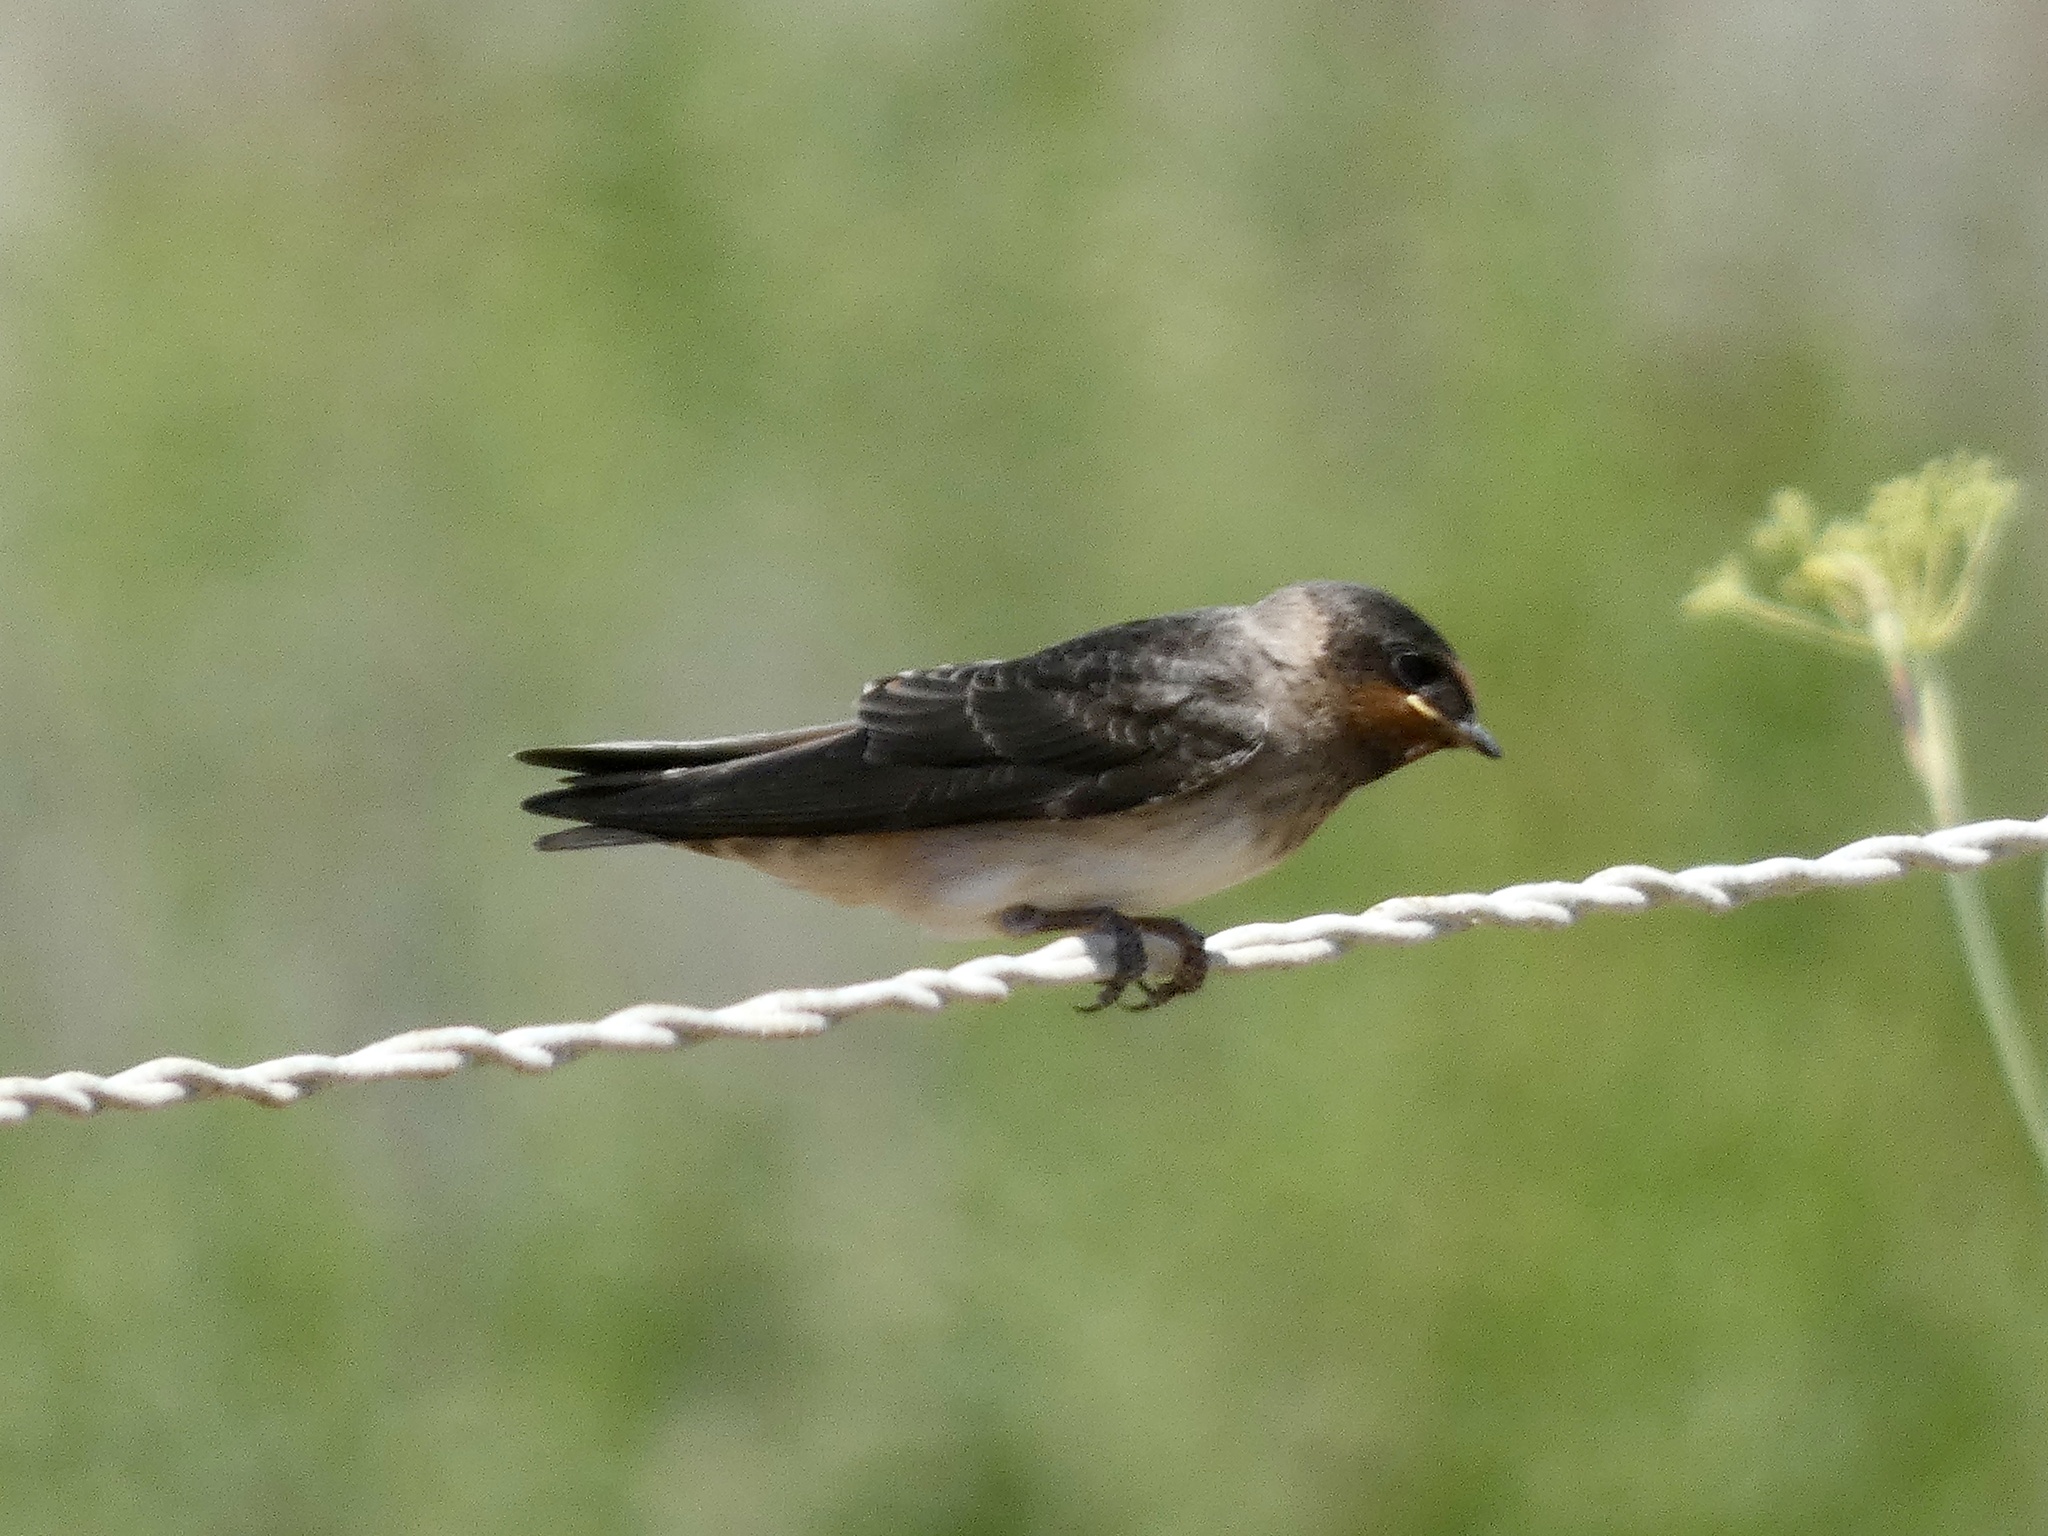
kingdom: Animalia
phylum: Chordata
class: Aves
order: Passeriformes
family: Hirundinidae
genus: Petrochelidon
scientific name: Petrochelidon pyrrhonota
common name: American cliff swallow
